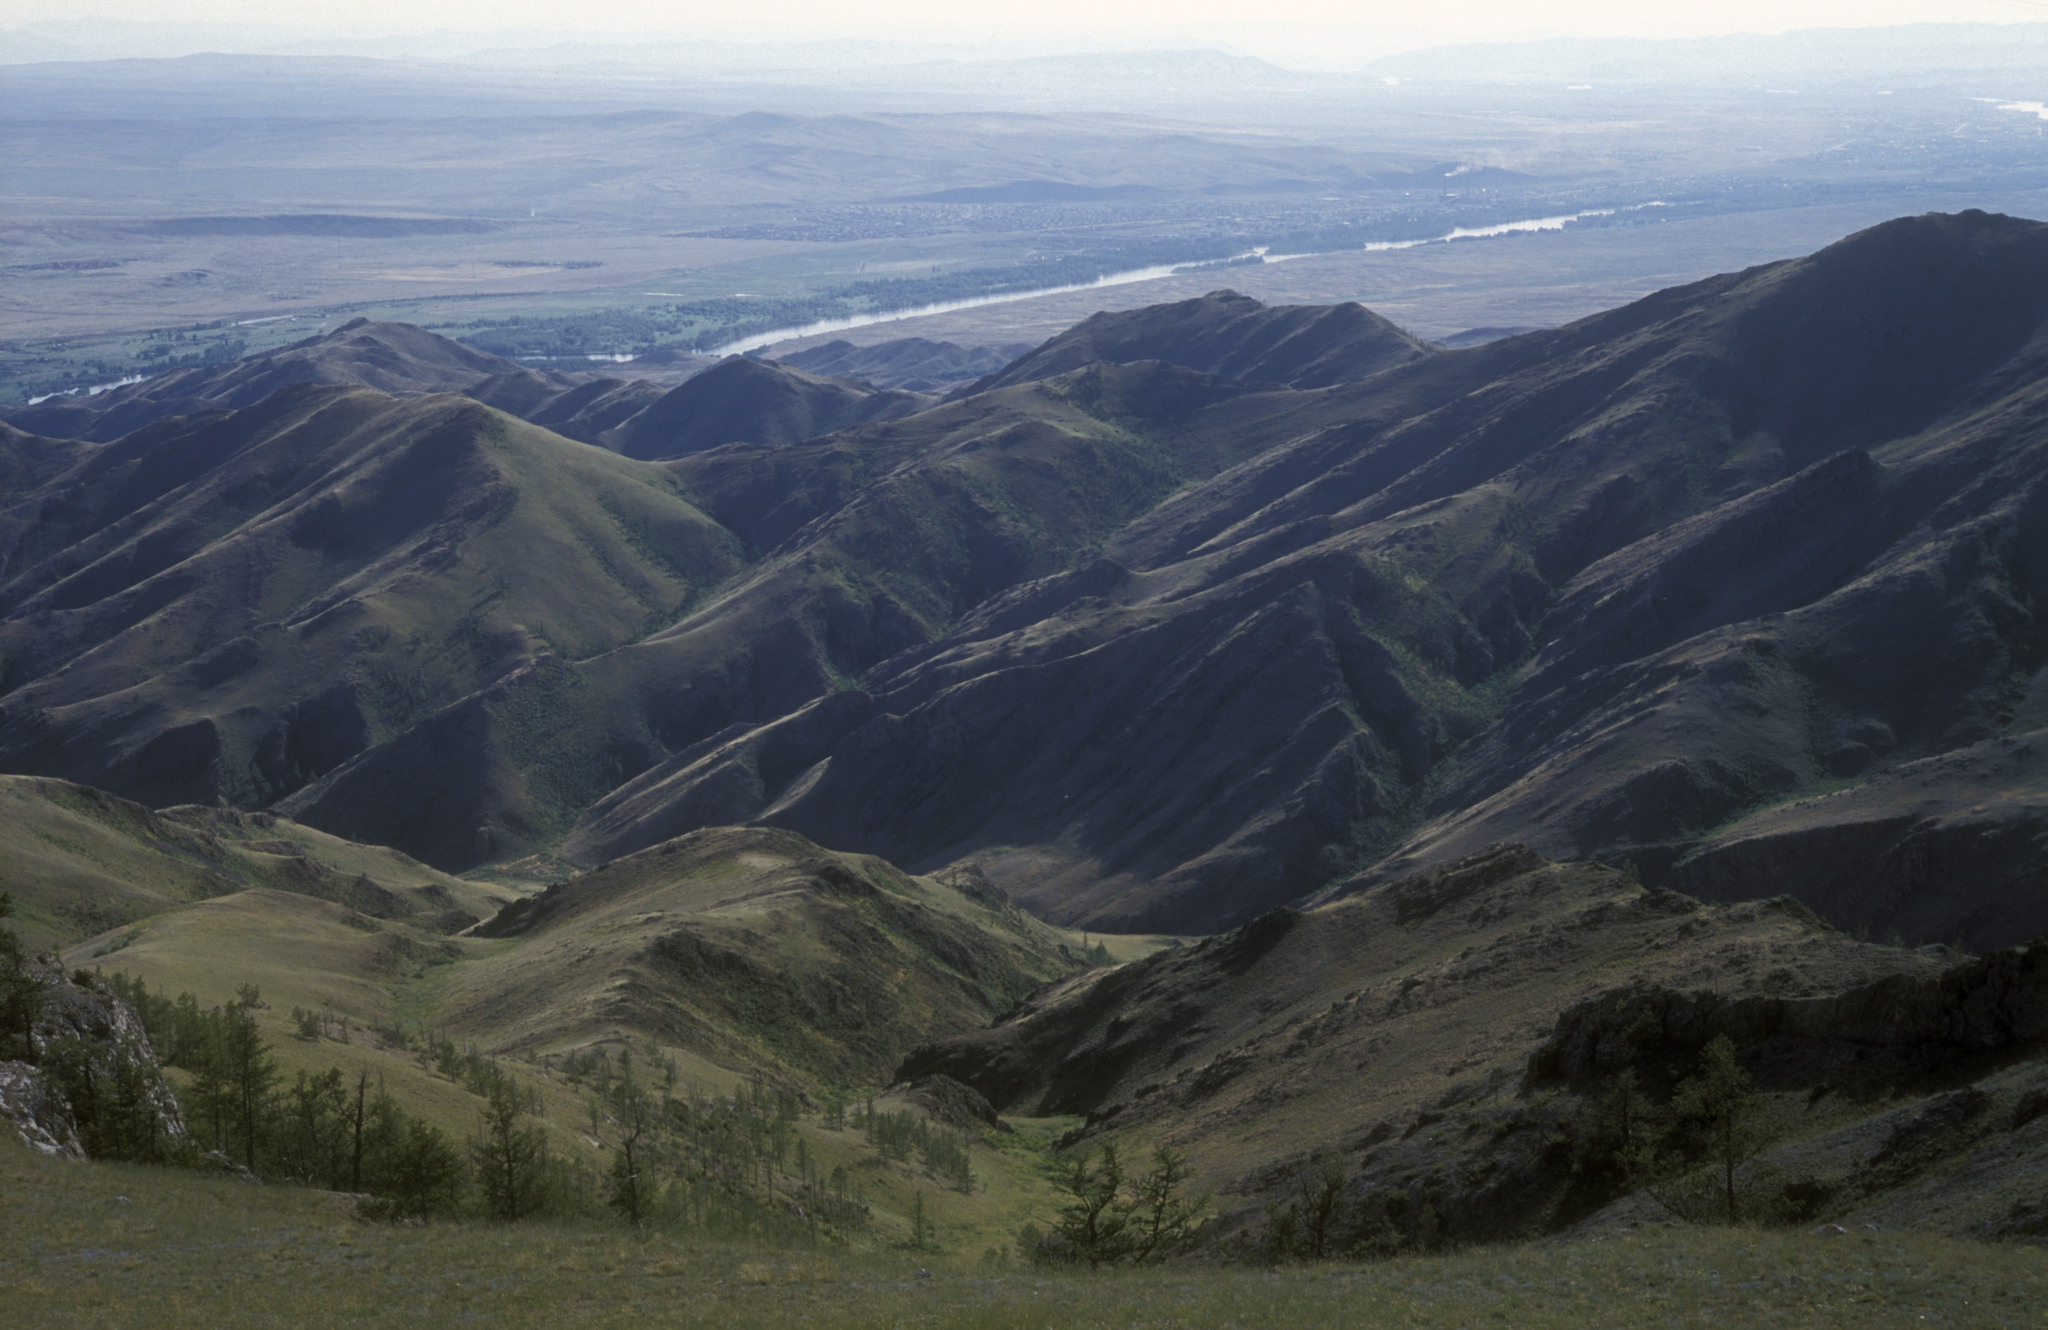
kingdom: Plantae
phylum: Tracheophyta
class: Pinopsida
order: Pinales
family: Pinaceae
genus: Larix
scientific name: Larix sibirica
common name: Siberian larch
